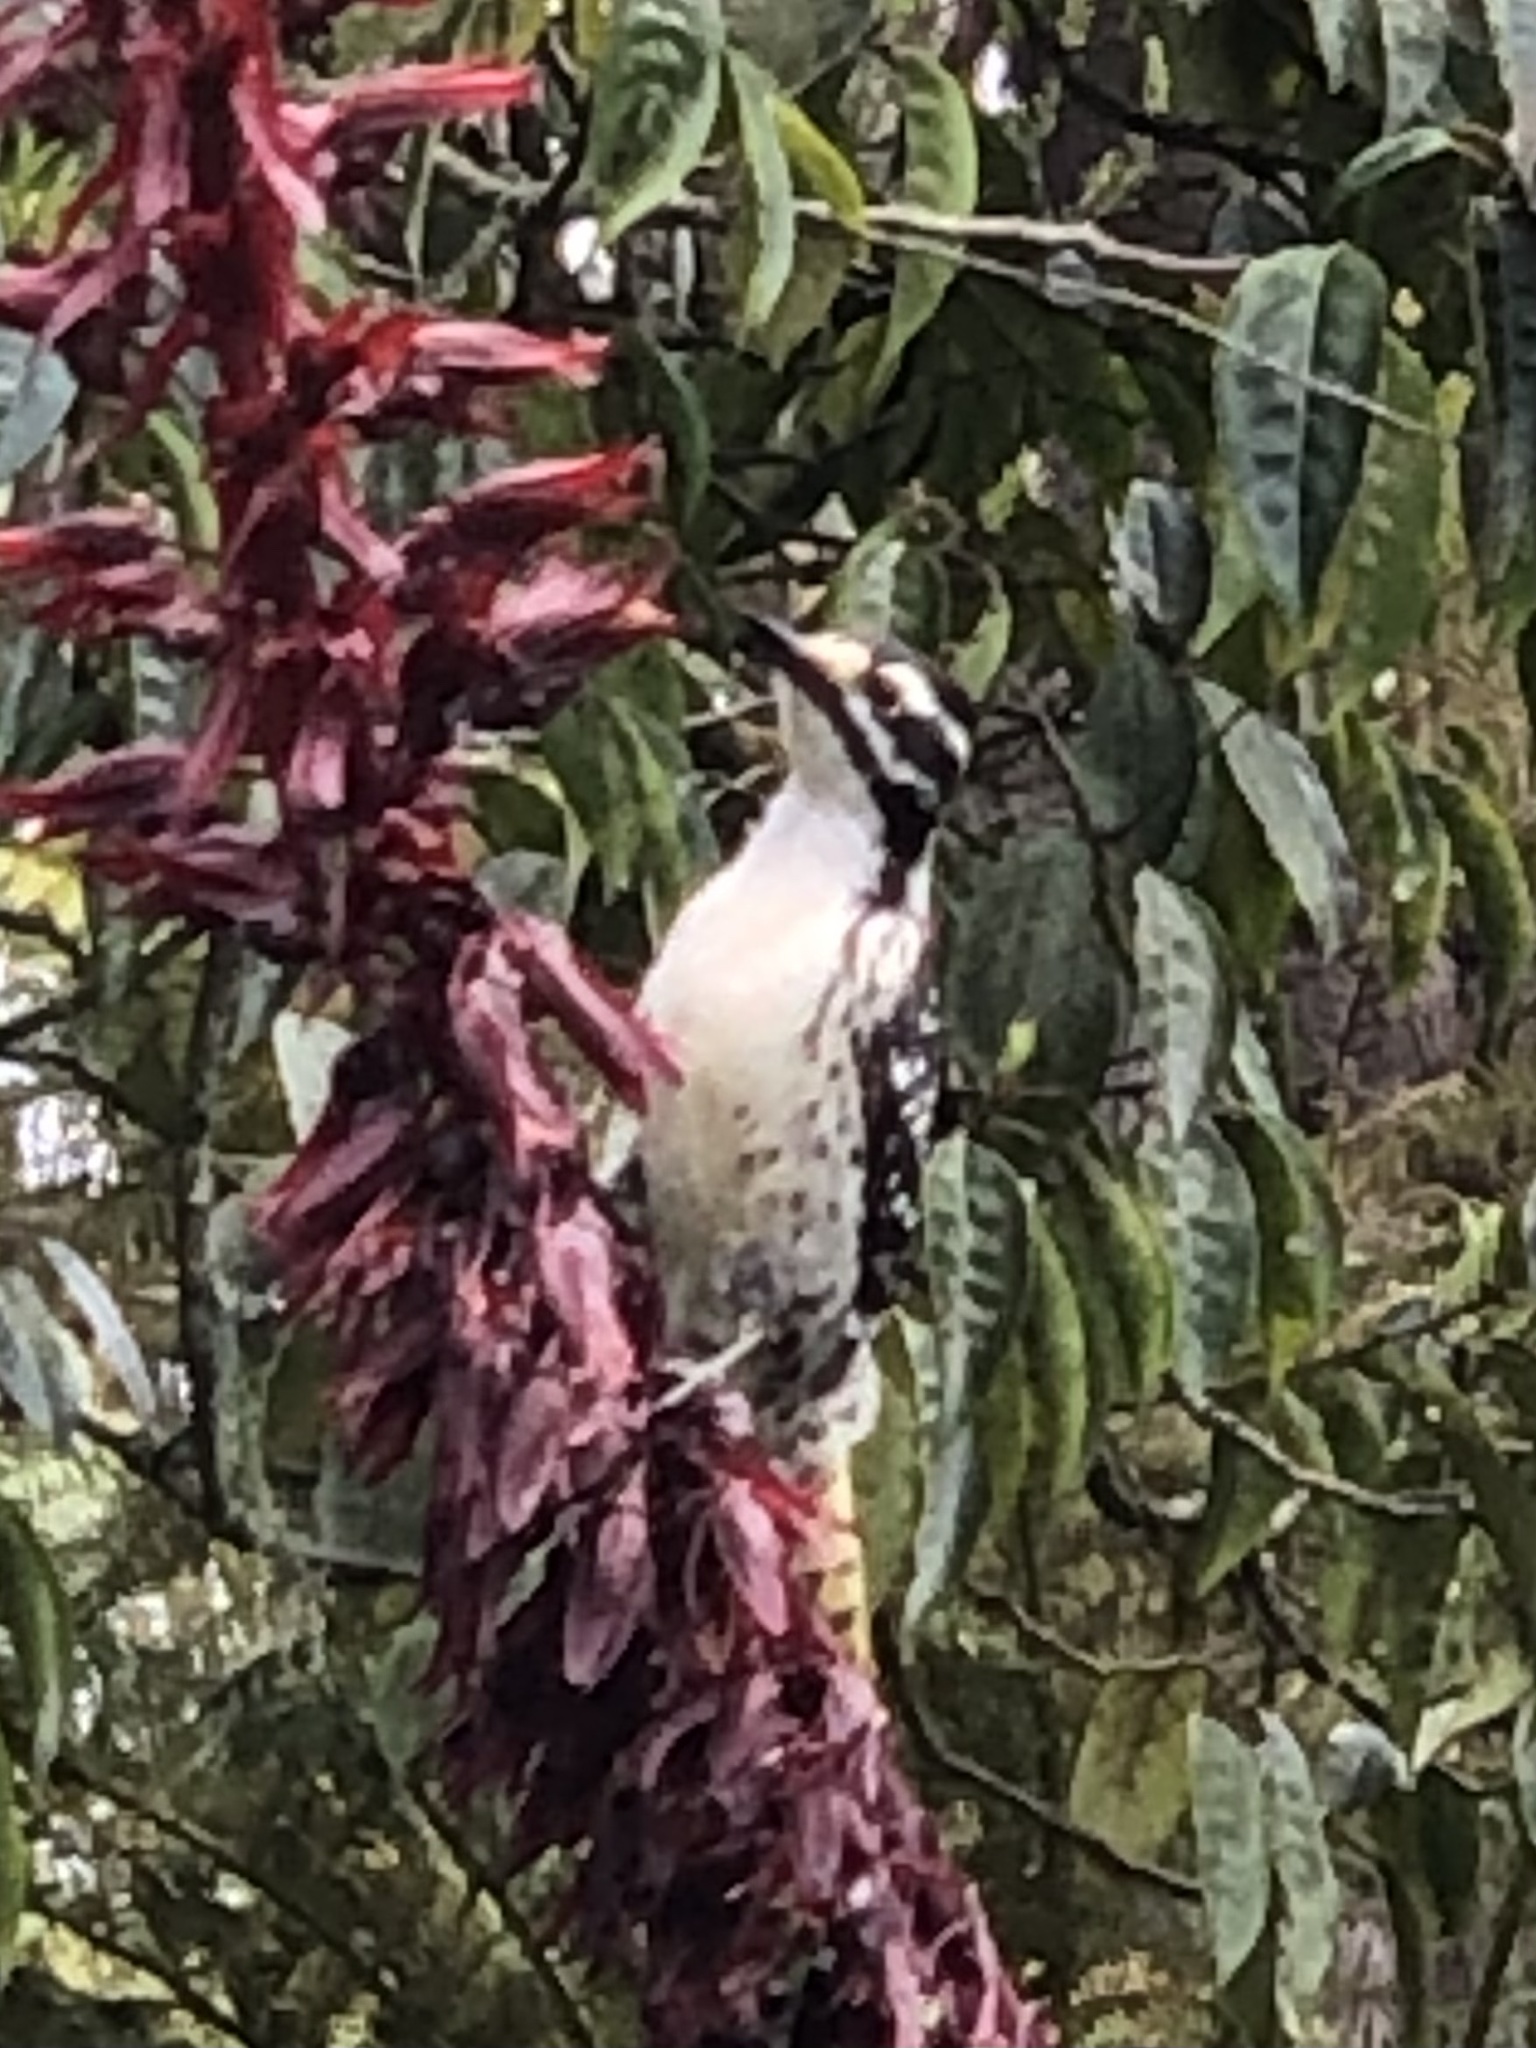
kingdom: Animalia
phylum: Chordata
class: Aves
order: Piciformes
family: Picidae
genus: Dryobates
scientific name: Dryobates nuttallii
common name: Nuttall's woodpecker
